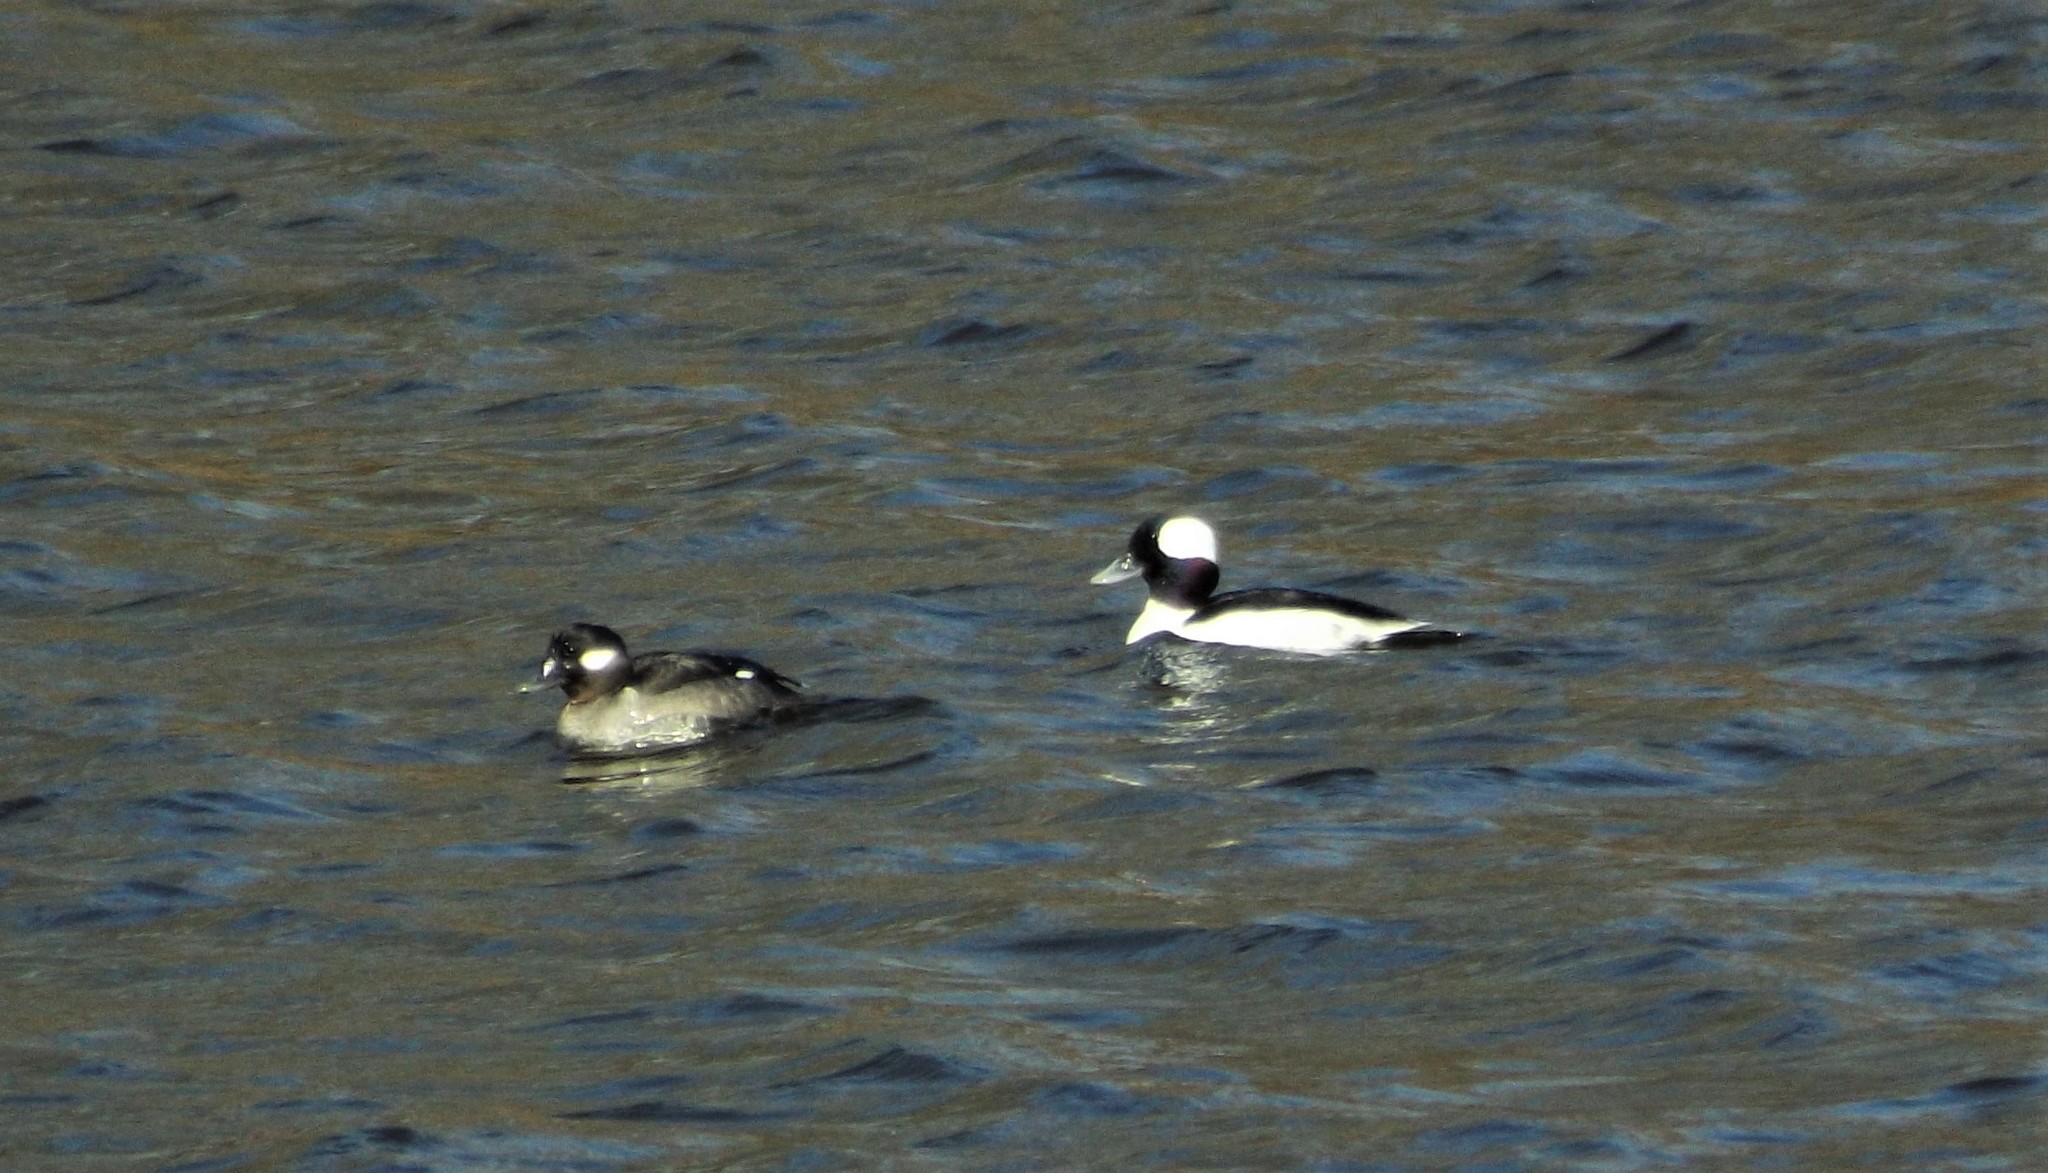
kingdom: Animalia
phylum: Chordata
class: Aves
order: Anseriformes
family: Anatidae
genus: Bucephala
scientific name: Bucephala albeola
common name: Bufflehead
